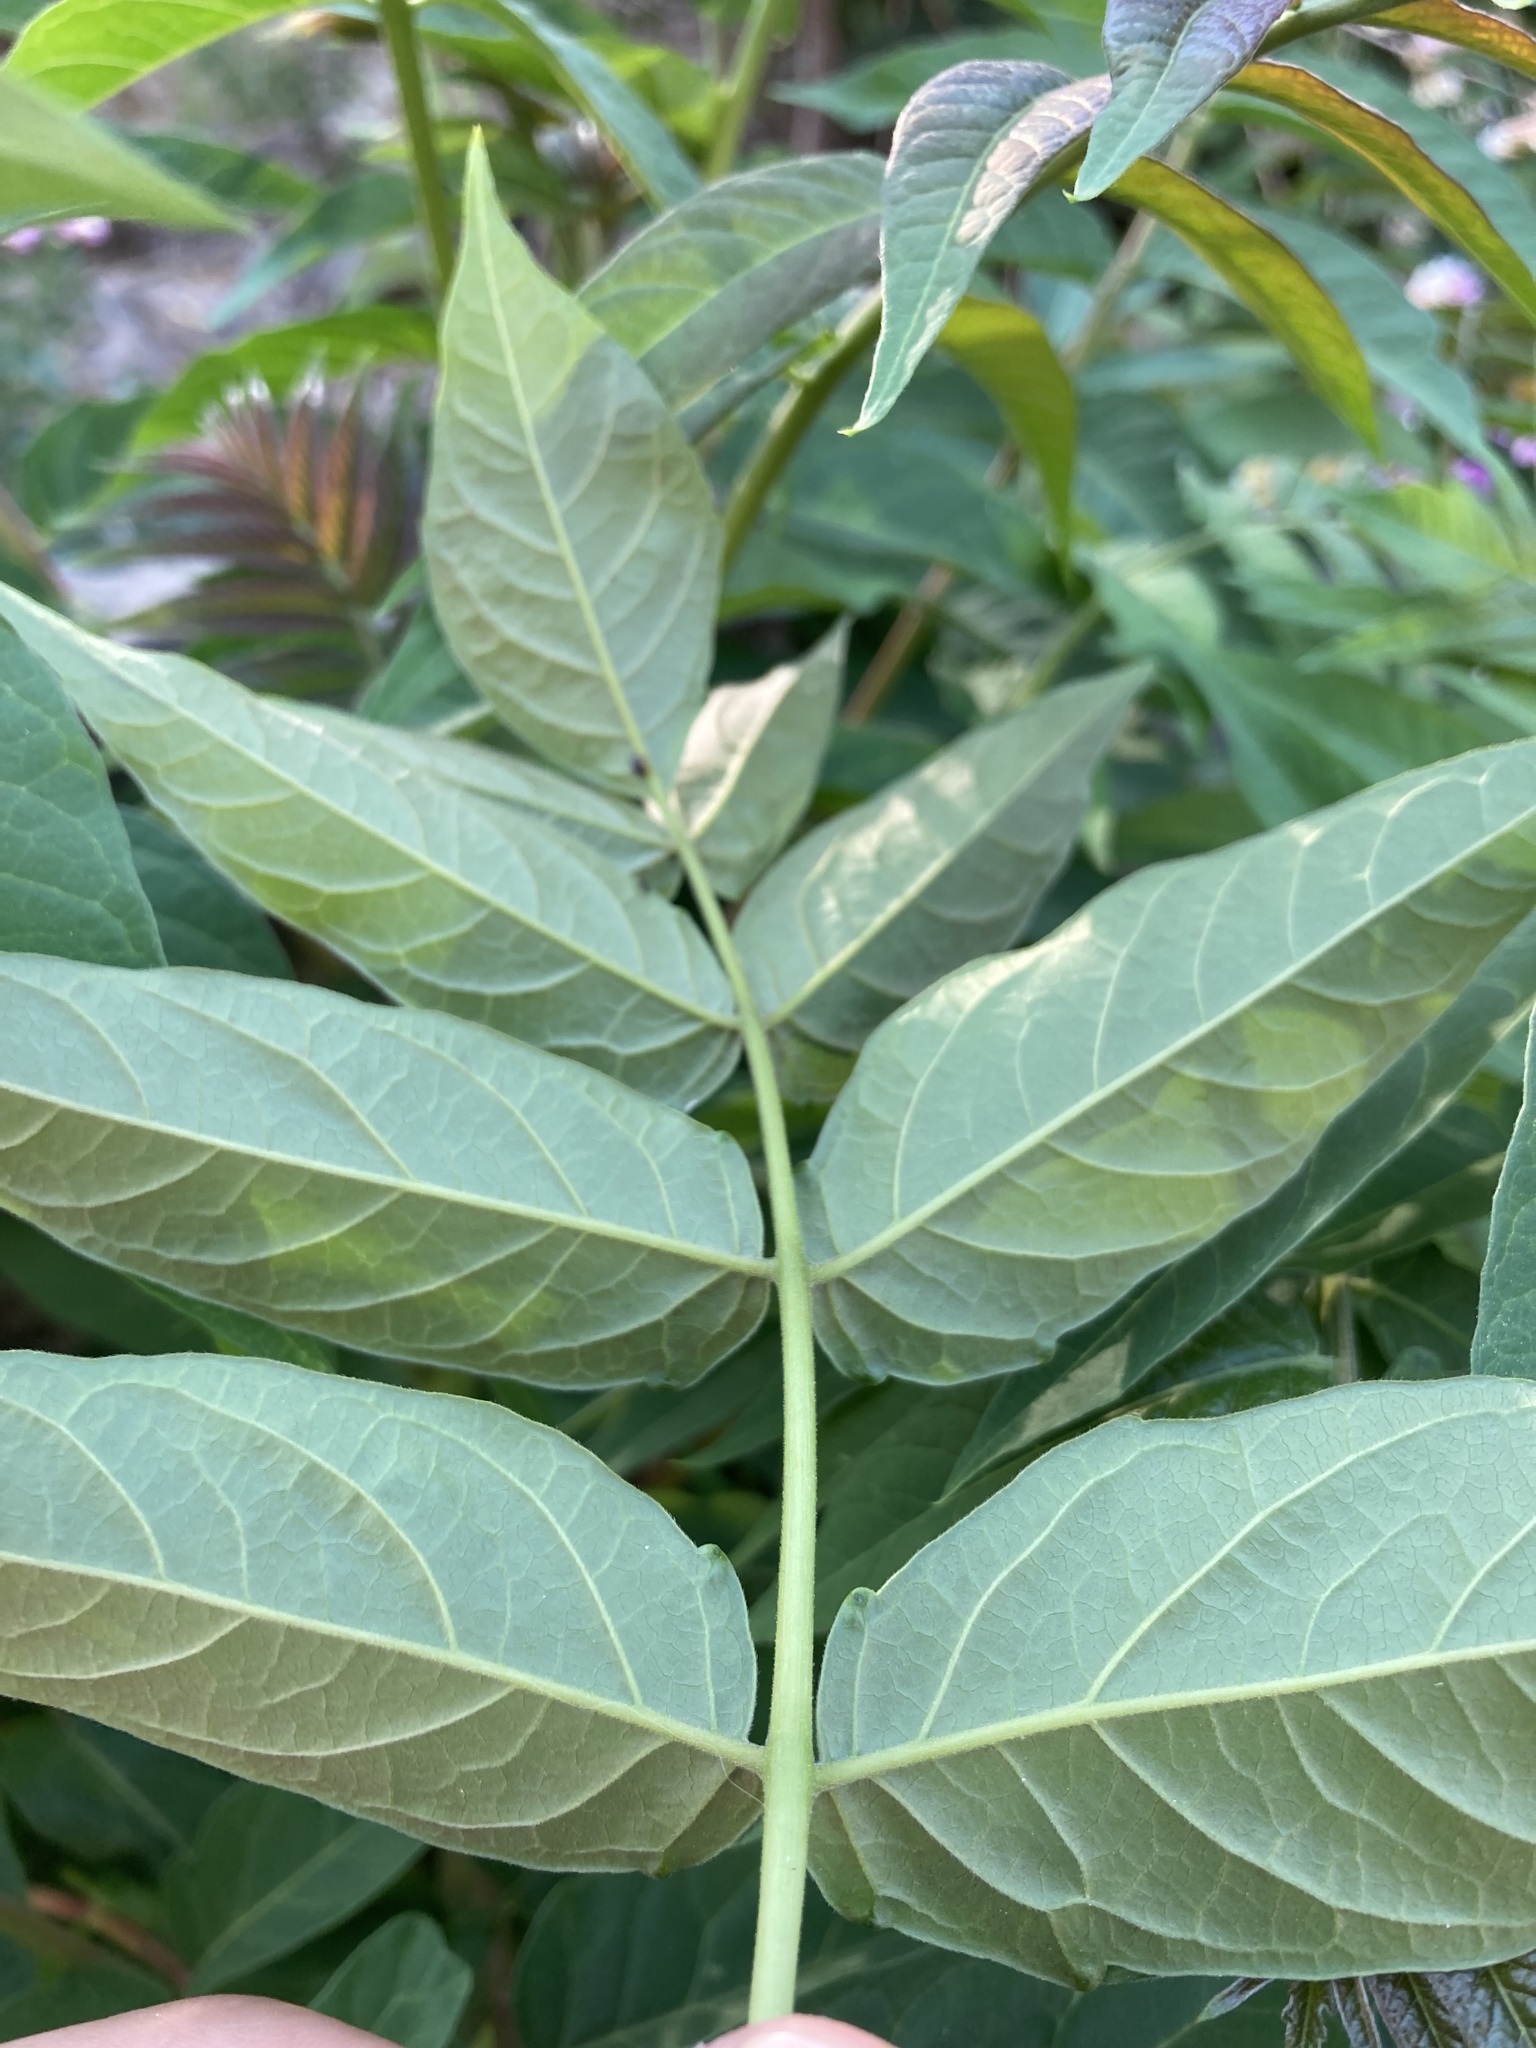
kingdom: Plantae
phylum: Tracheophyta
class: Magnoliopsida
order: Sapindales
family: Simaroubaceae
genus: Ailanthus
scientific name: Ailanthus altissima
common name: Tree-of-heaven
